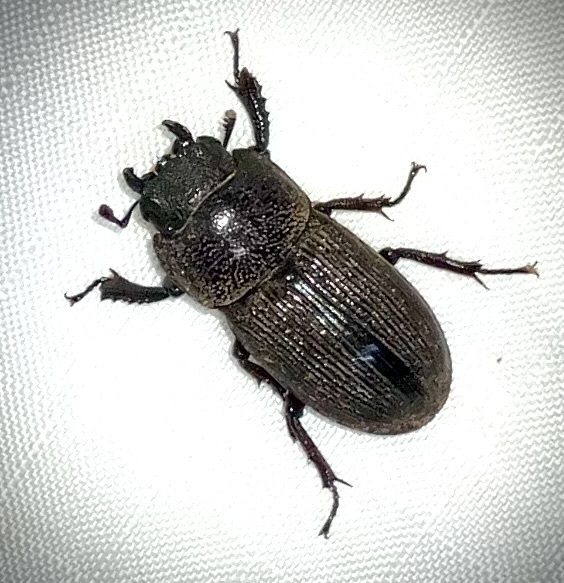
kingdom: Animalia
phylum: Arthropoda
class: Insecta
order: Coleoptera
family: Lucanidae
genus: Dorcus
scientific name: Dorcus brevis
